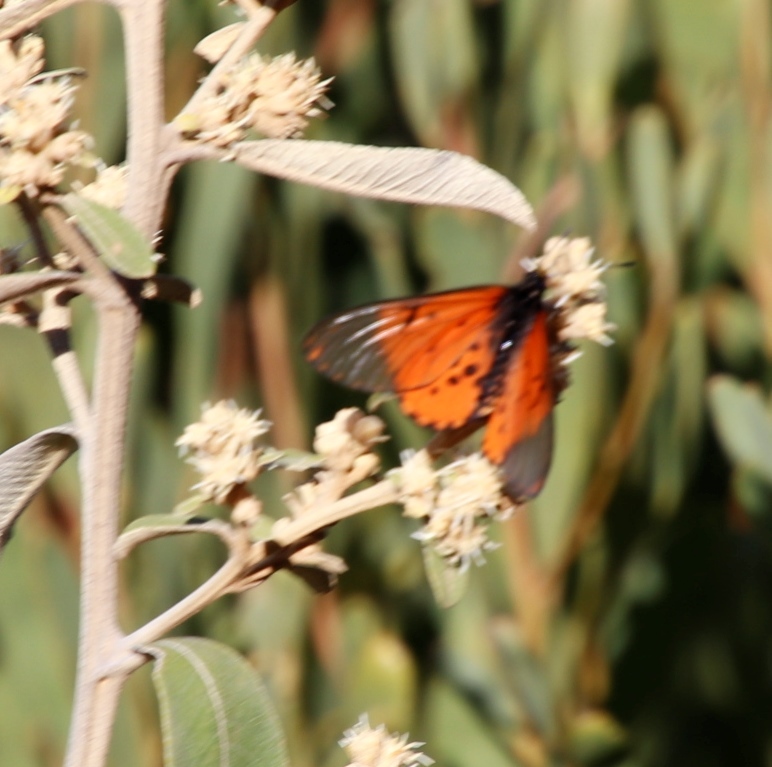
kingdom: Animalia
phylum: Arthropoda
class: Insecta
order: Lepidoptera
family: Nymphalidae
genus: Acraea
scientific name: Acraea horta
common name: Garden acraea
